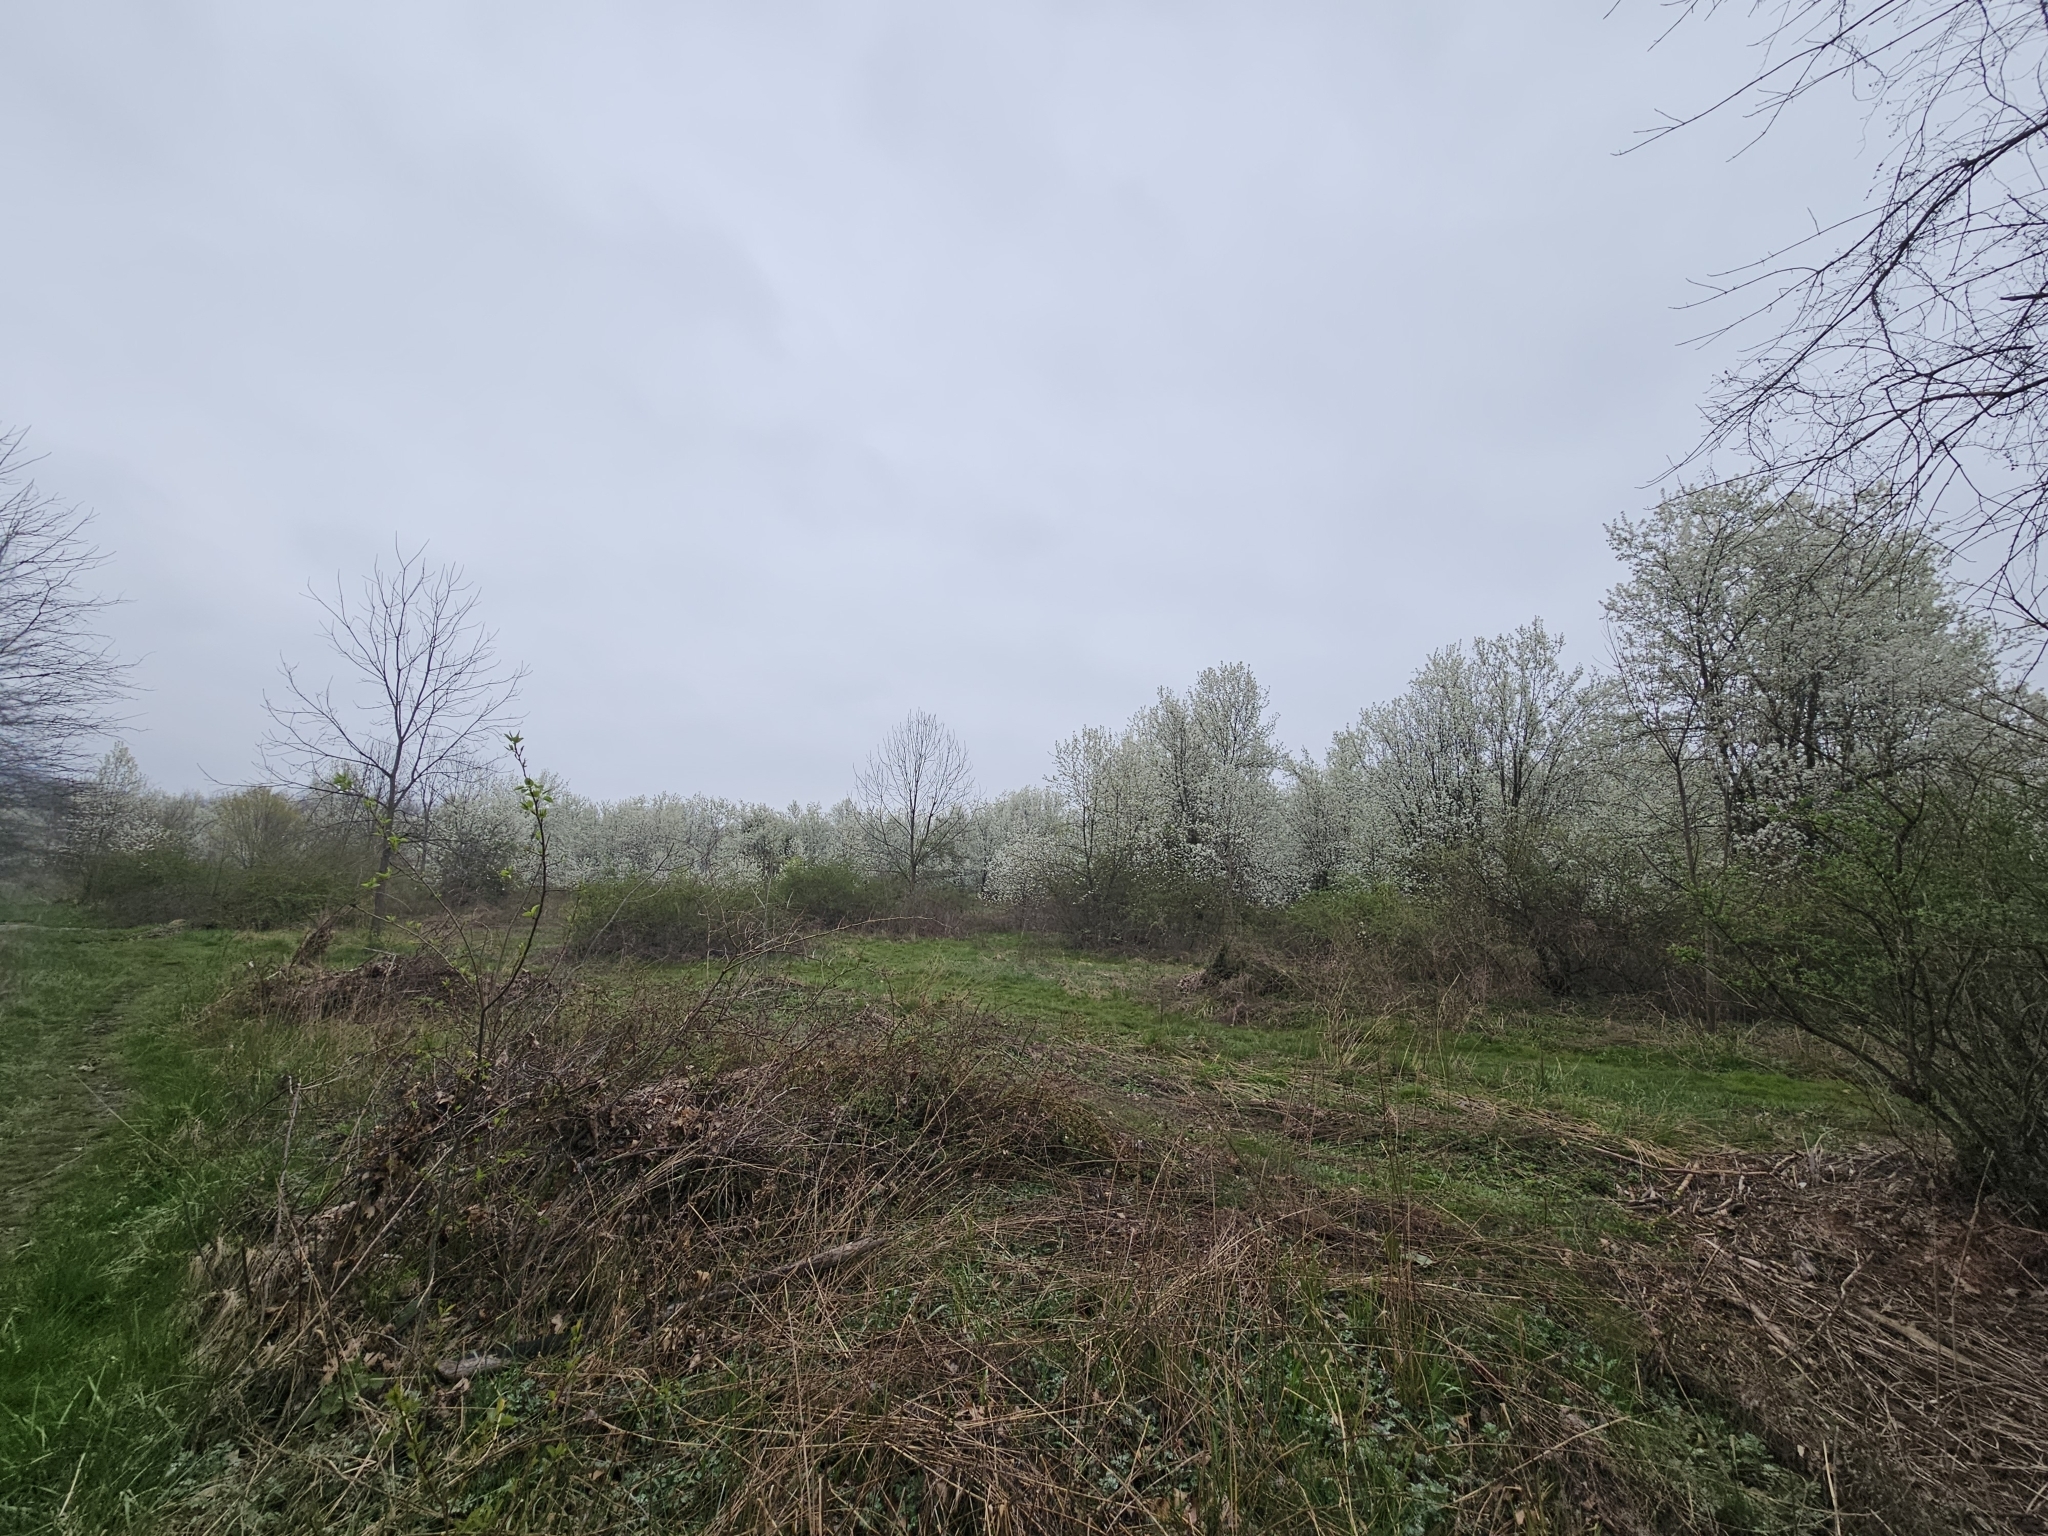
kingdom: Plantae
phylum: Tracheophyta
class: Magnoliopsida
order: Rosales
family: Rosaceae
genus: Pyrus
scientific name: Pyrus calleryana
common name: Callery pear
